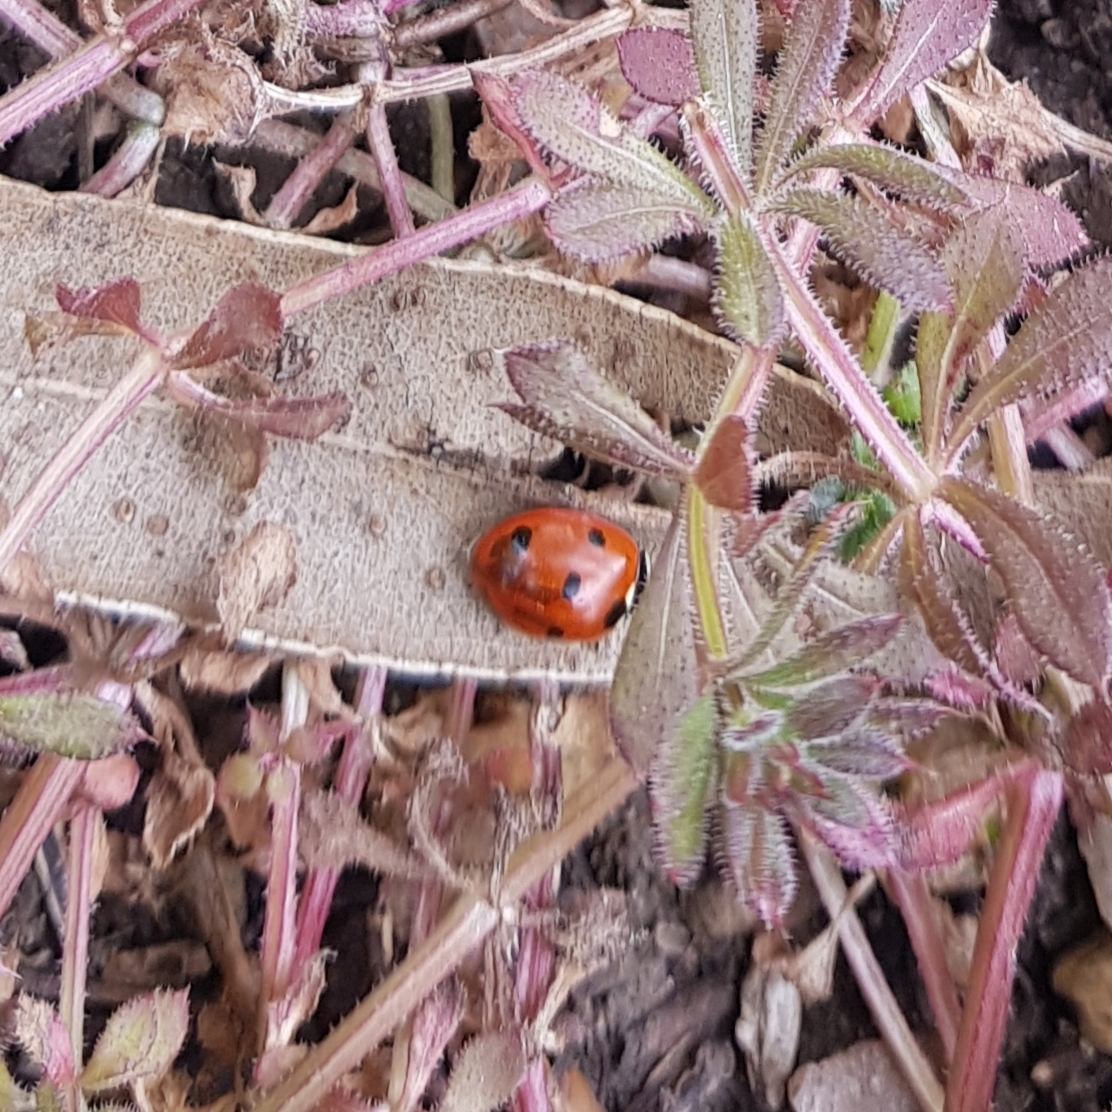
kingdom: Animalia
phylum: Arthropoda
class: Insecta
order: Coleoptera
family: Coccinellidae
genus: Coccinella
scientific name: Coccinella septempunctata
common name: Sevenspotted lady beetle
